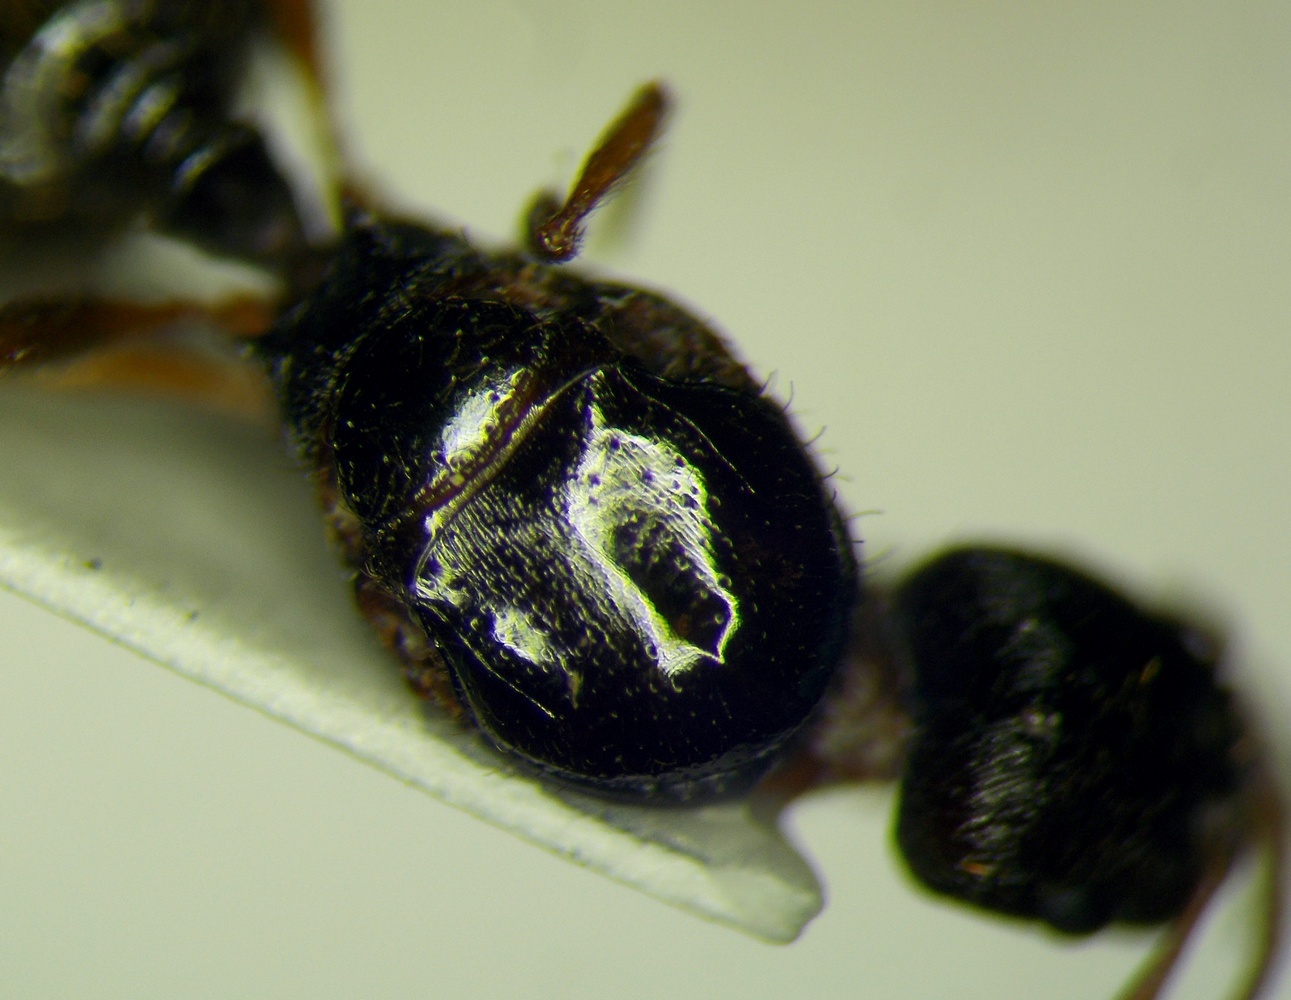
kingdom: Animalia
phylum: Arthropoda
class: Insecta
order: Hymenoptera
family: Formicidae
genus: Tetramorium
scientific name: Tetramorium caespitum
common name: Pavement ant
